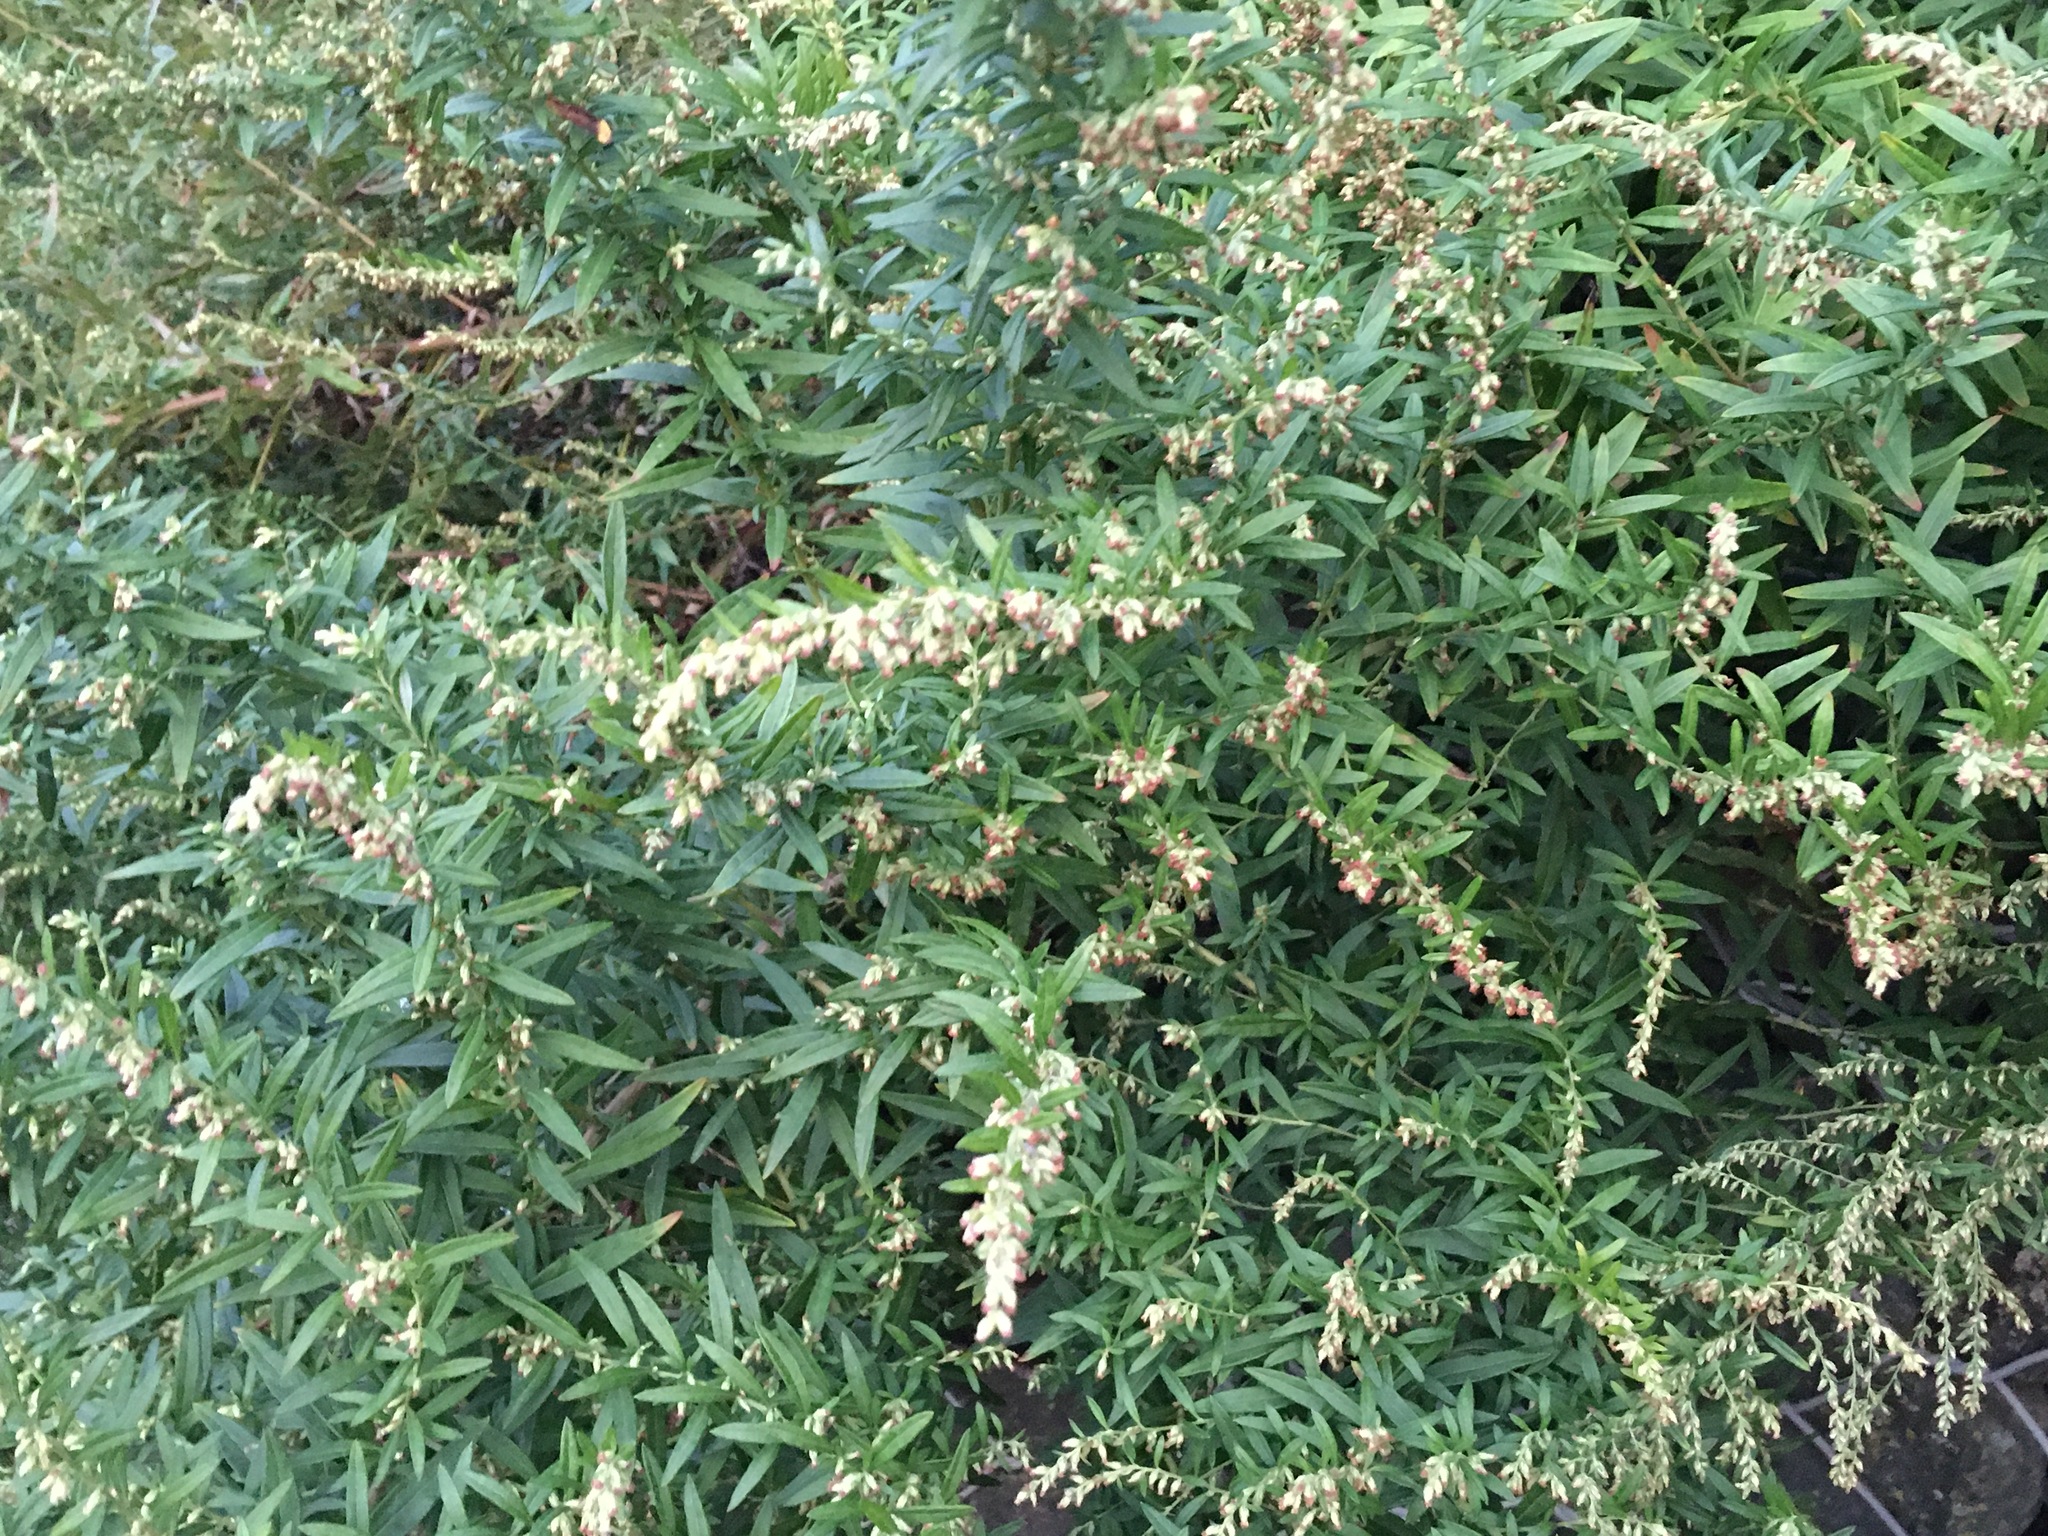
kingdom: Plantae
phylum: Tracheophyta
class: Magnoliopsida
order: Asterales
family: Asteraceae
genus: Artemisia
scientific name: Artemisia vulgaris
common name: Mugwort
